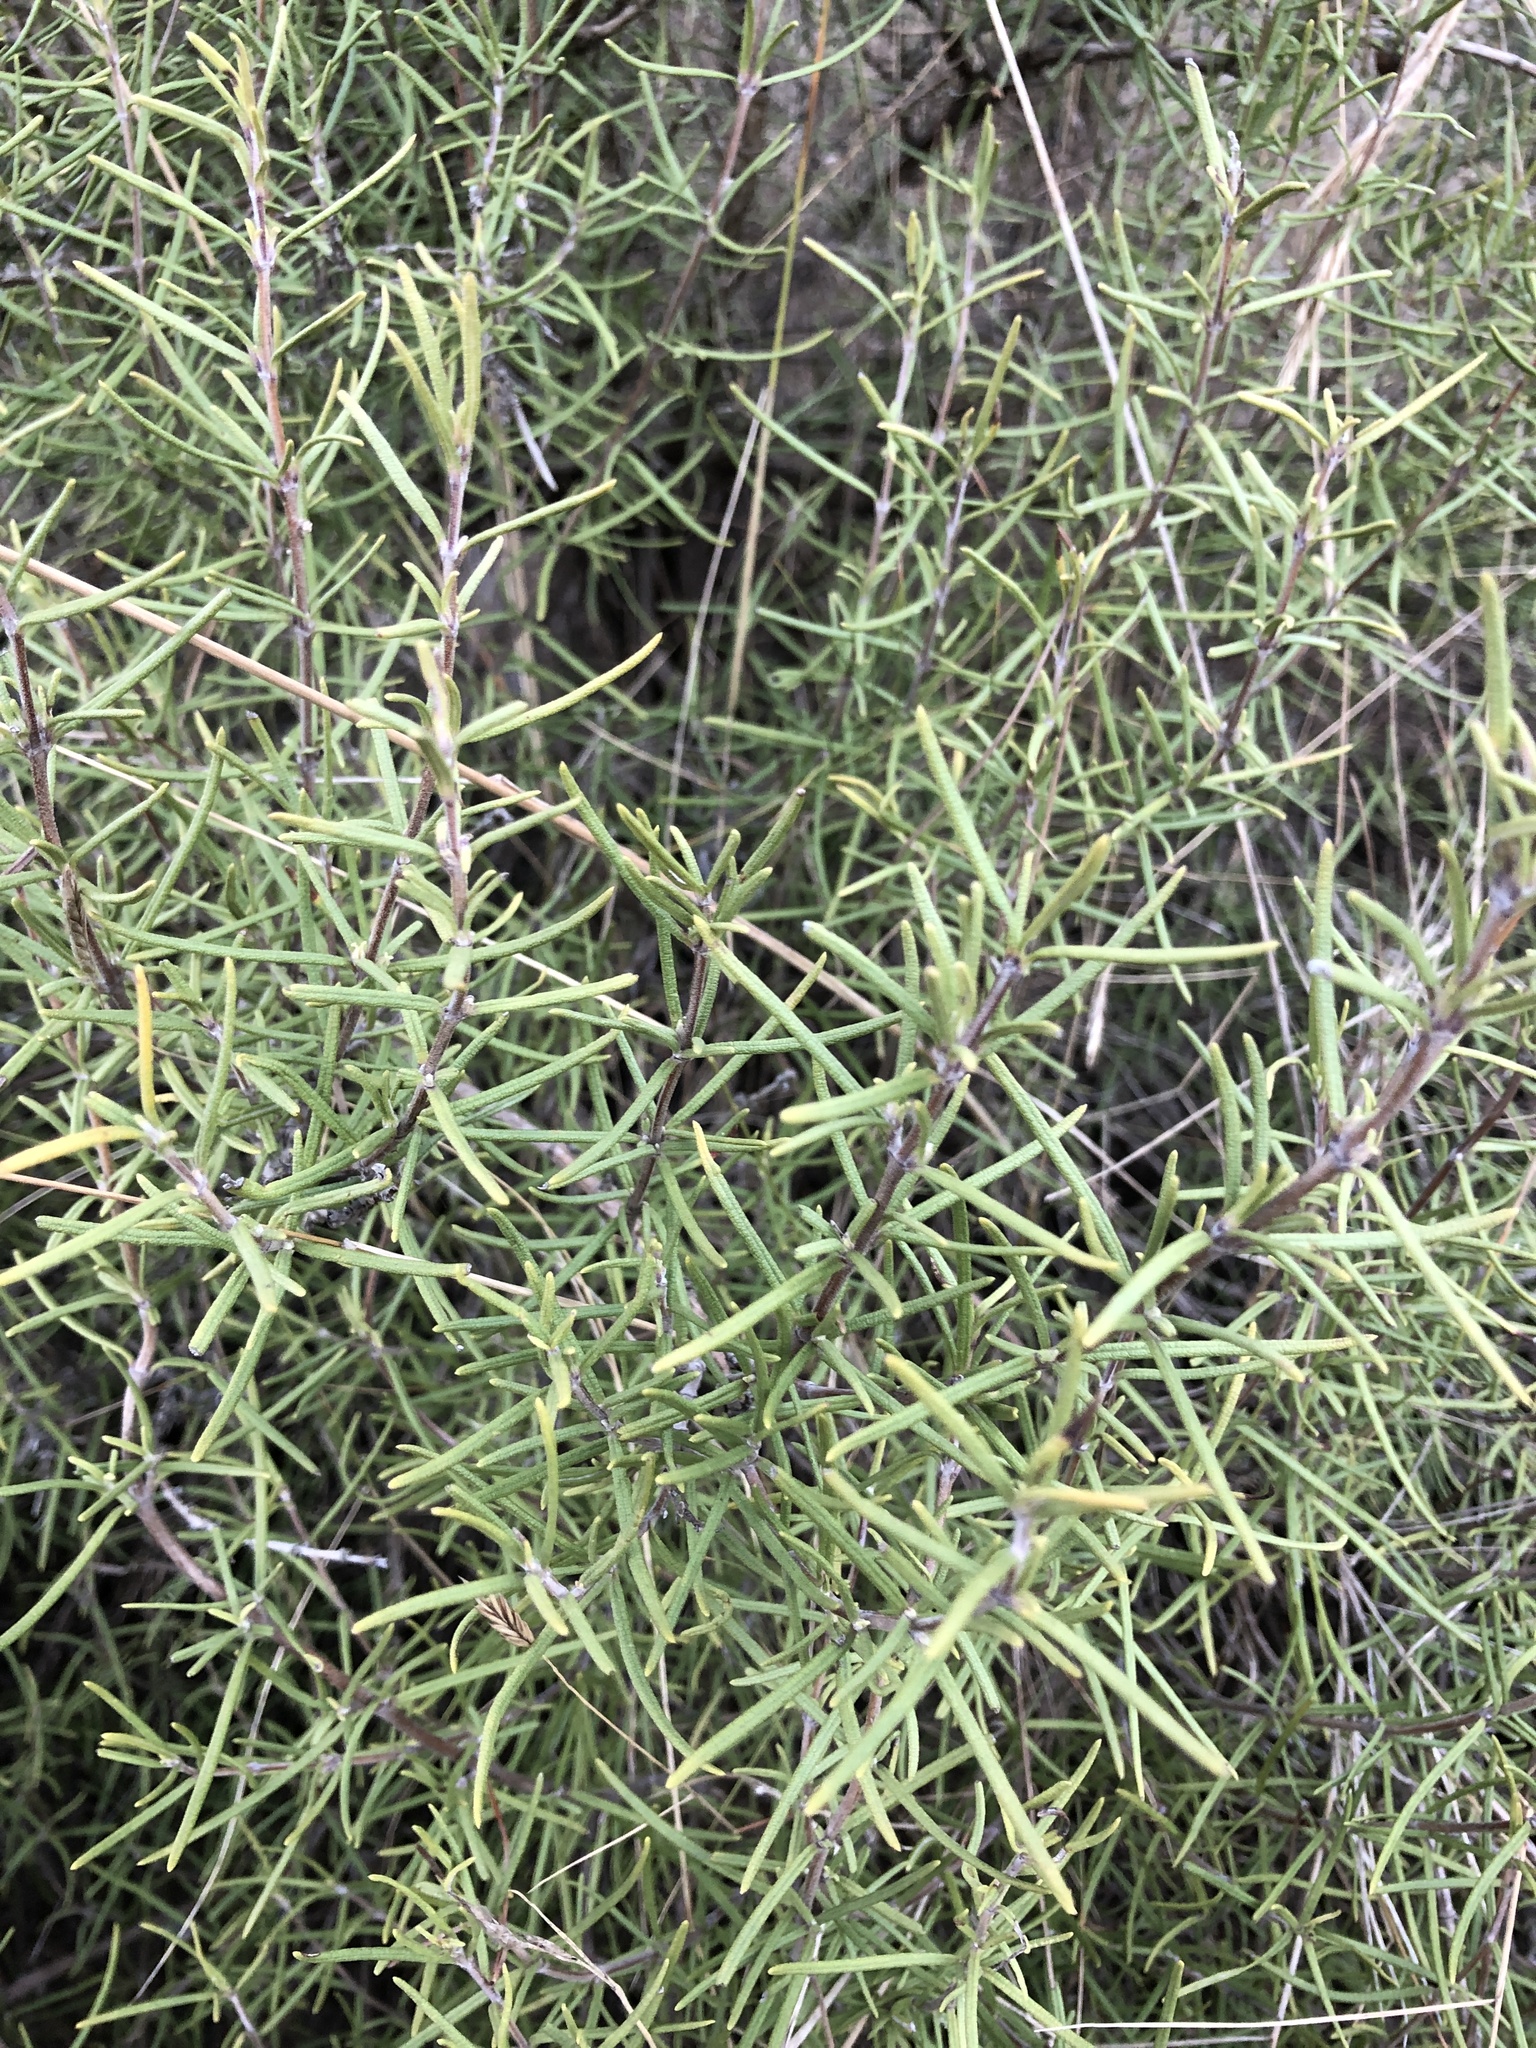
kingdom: Plantae
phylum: Tracheophyta
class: Magnoliopsida
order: Lamiales
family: Lamiaceae
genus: Salvia
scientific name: Salvia rosmarinus
